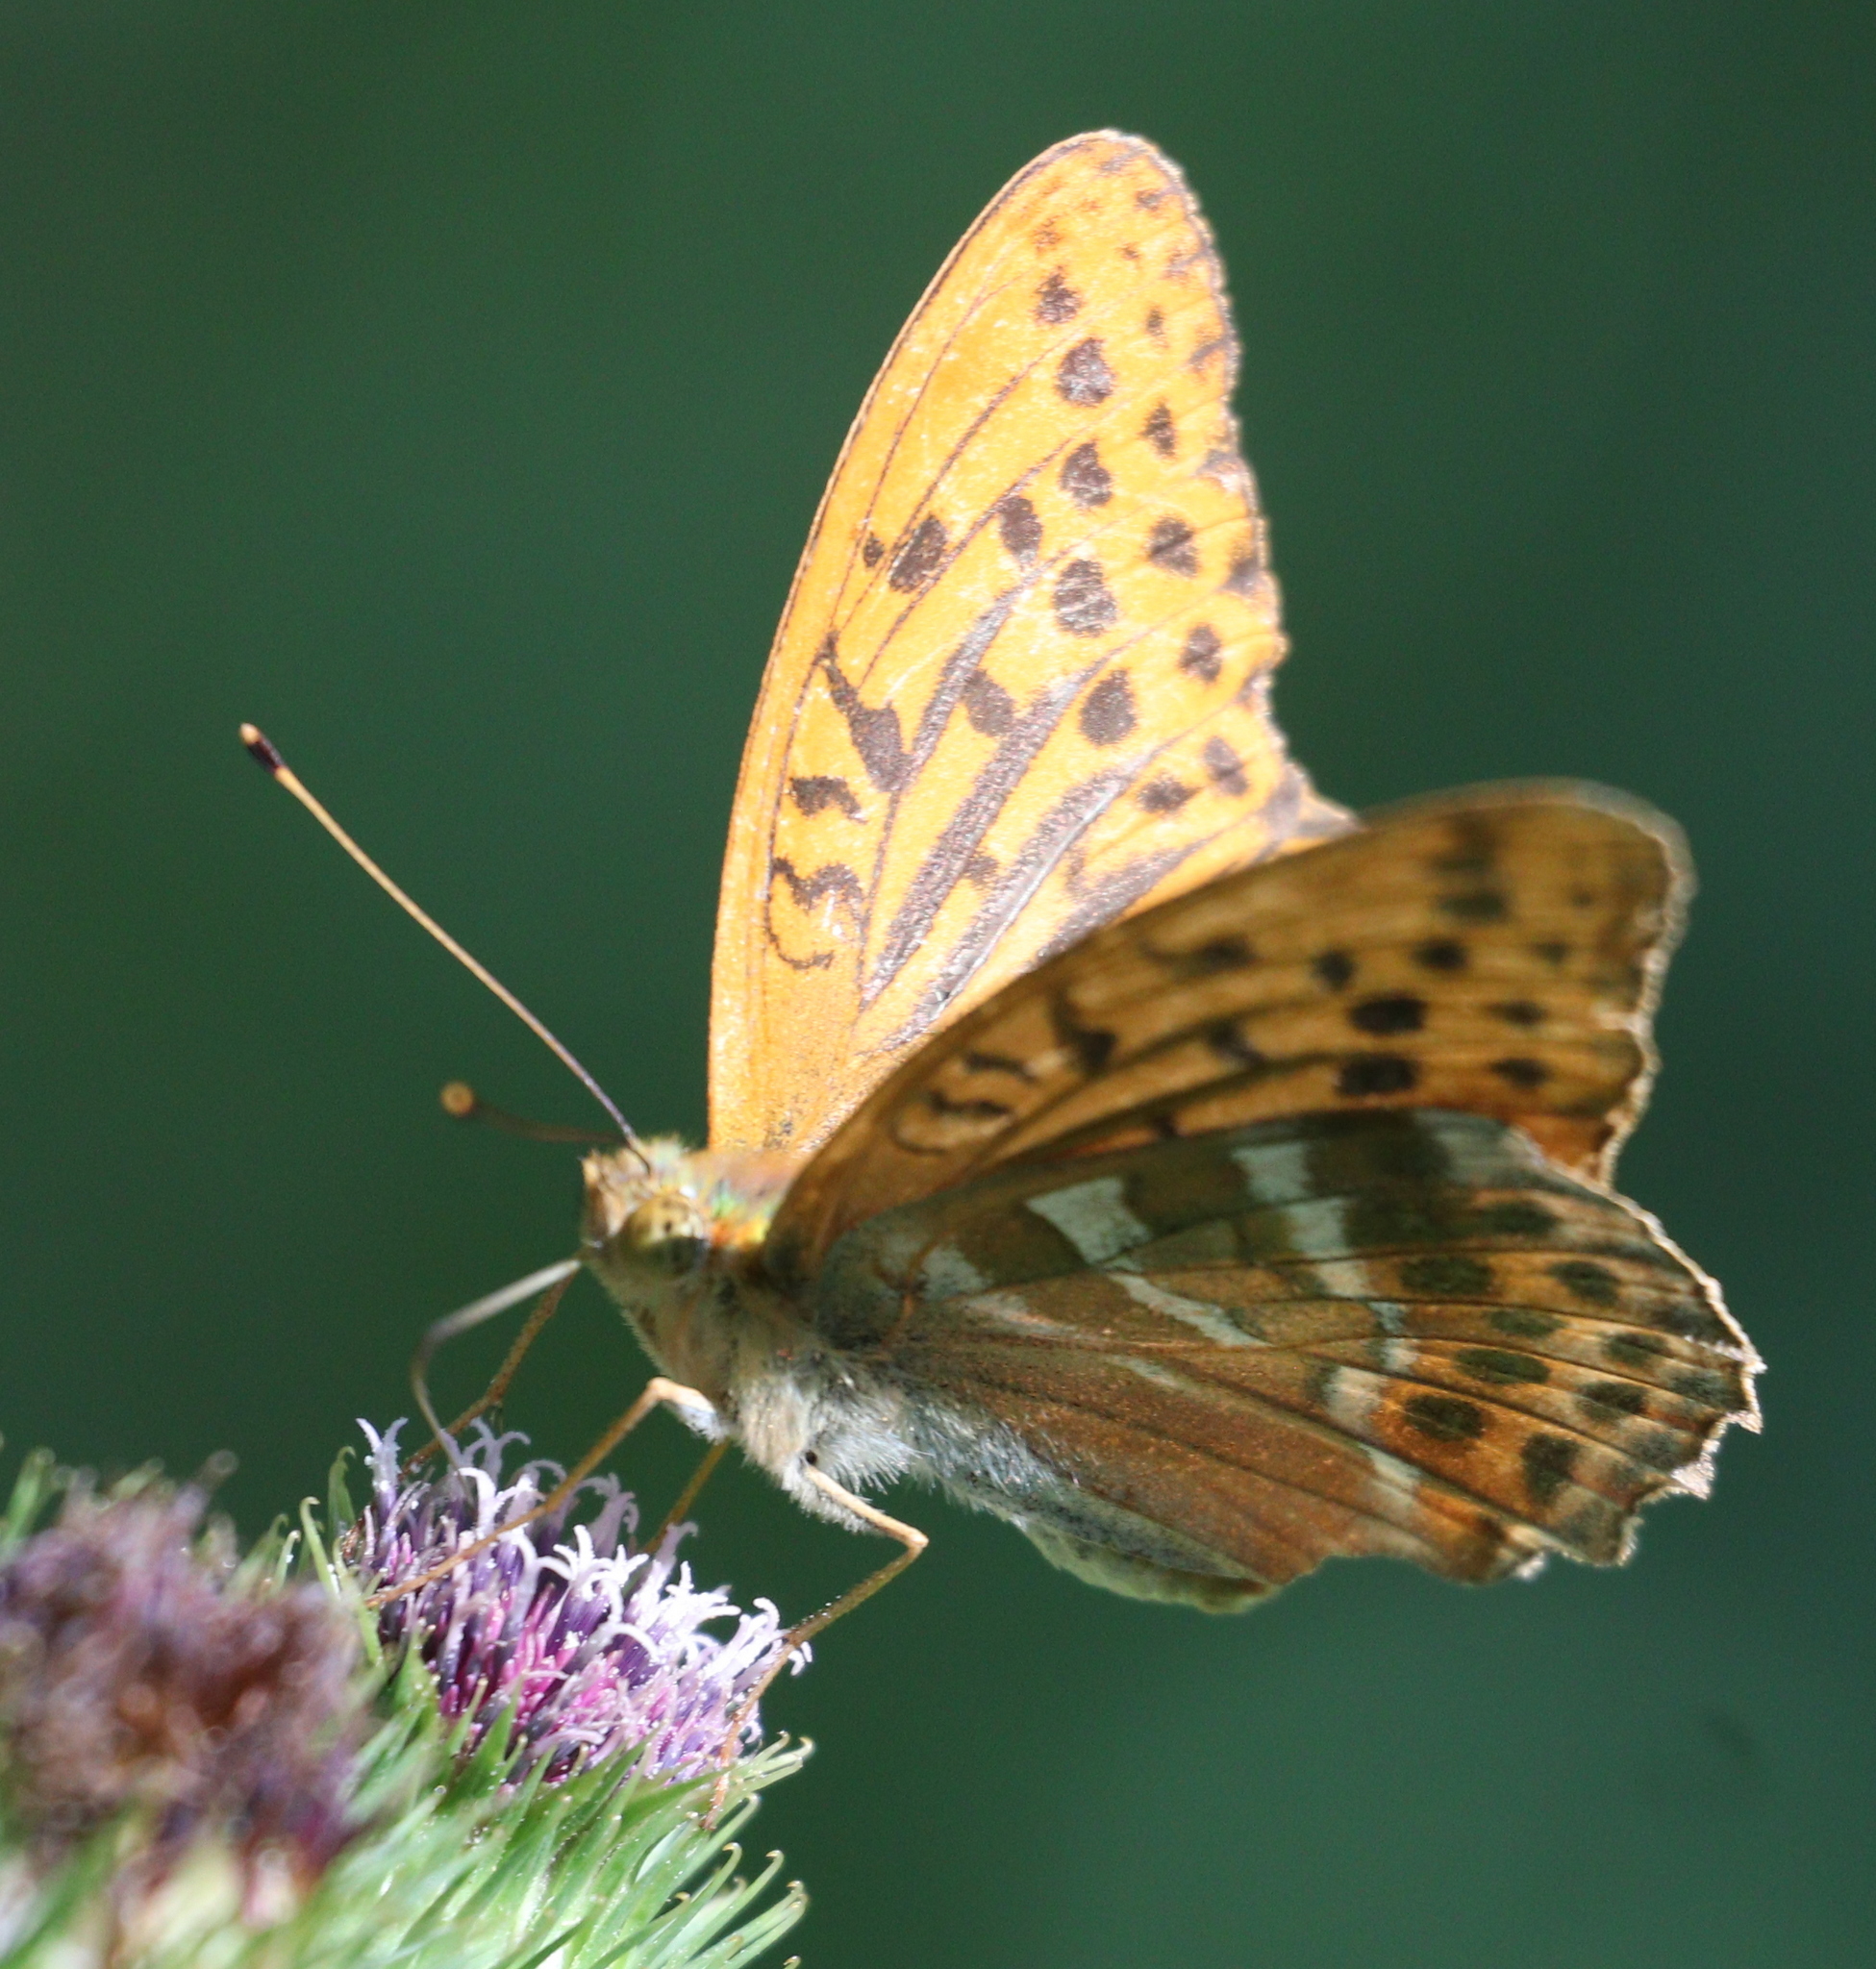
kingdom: Animalia
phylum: Arthropoda
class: Insecta
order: Lepidoptera
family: Nymphalidae
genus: Argynnis
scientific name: Argynnis paphia
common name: Silver-washed fritillary
